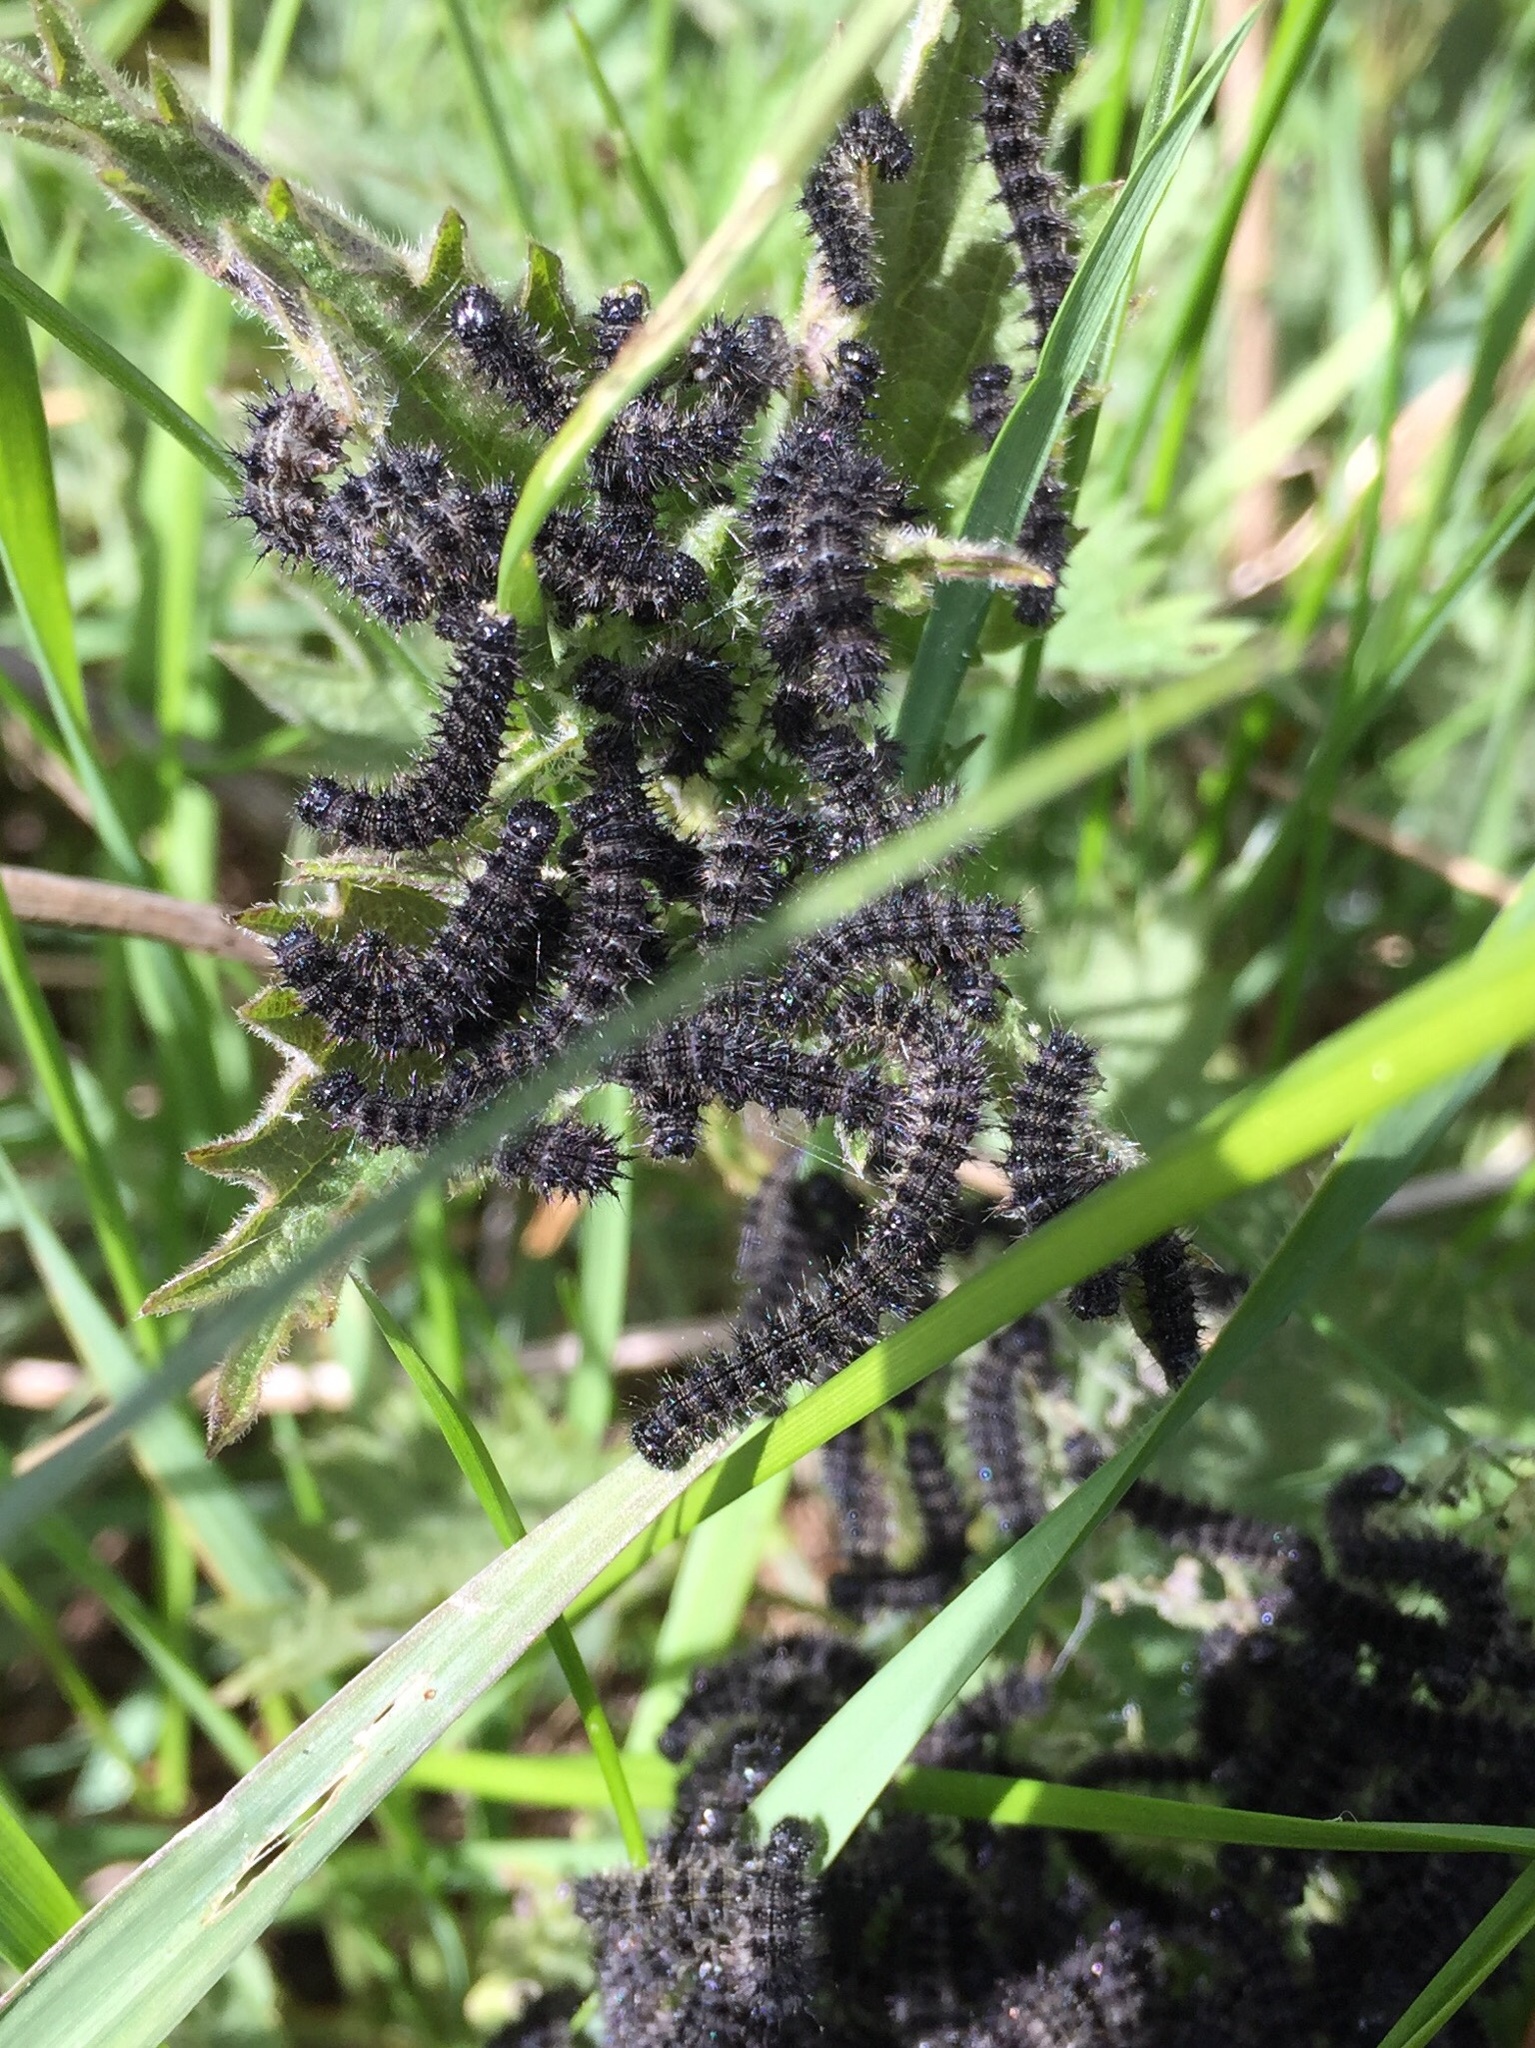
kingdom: Animalia
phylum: Arthropoda
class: Insecta
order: Lepidoptera
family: Nymphalidae
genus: Aglais
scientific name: Aglais urticae
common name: Small tortoiseshell
